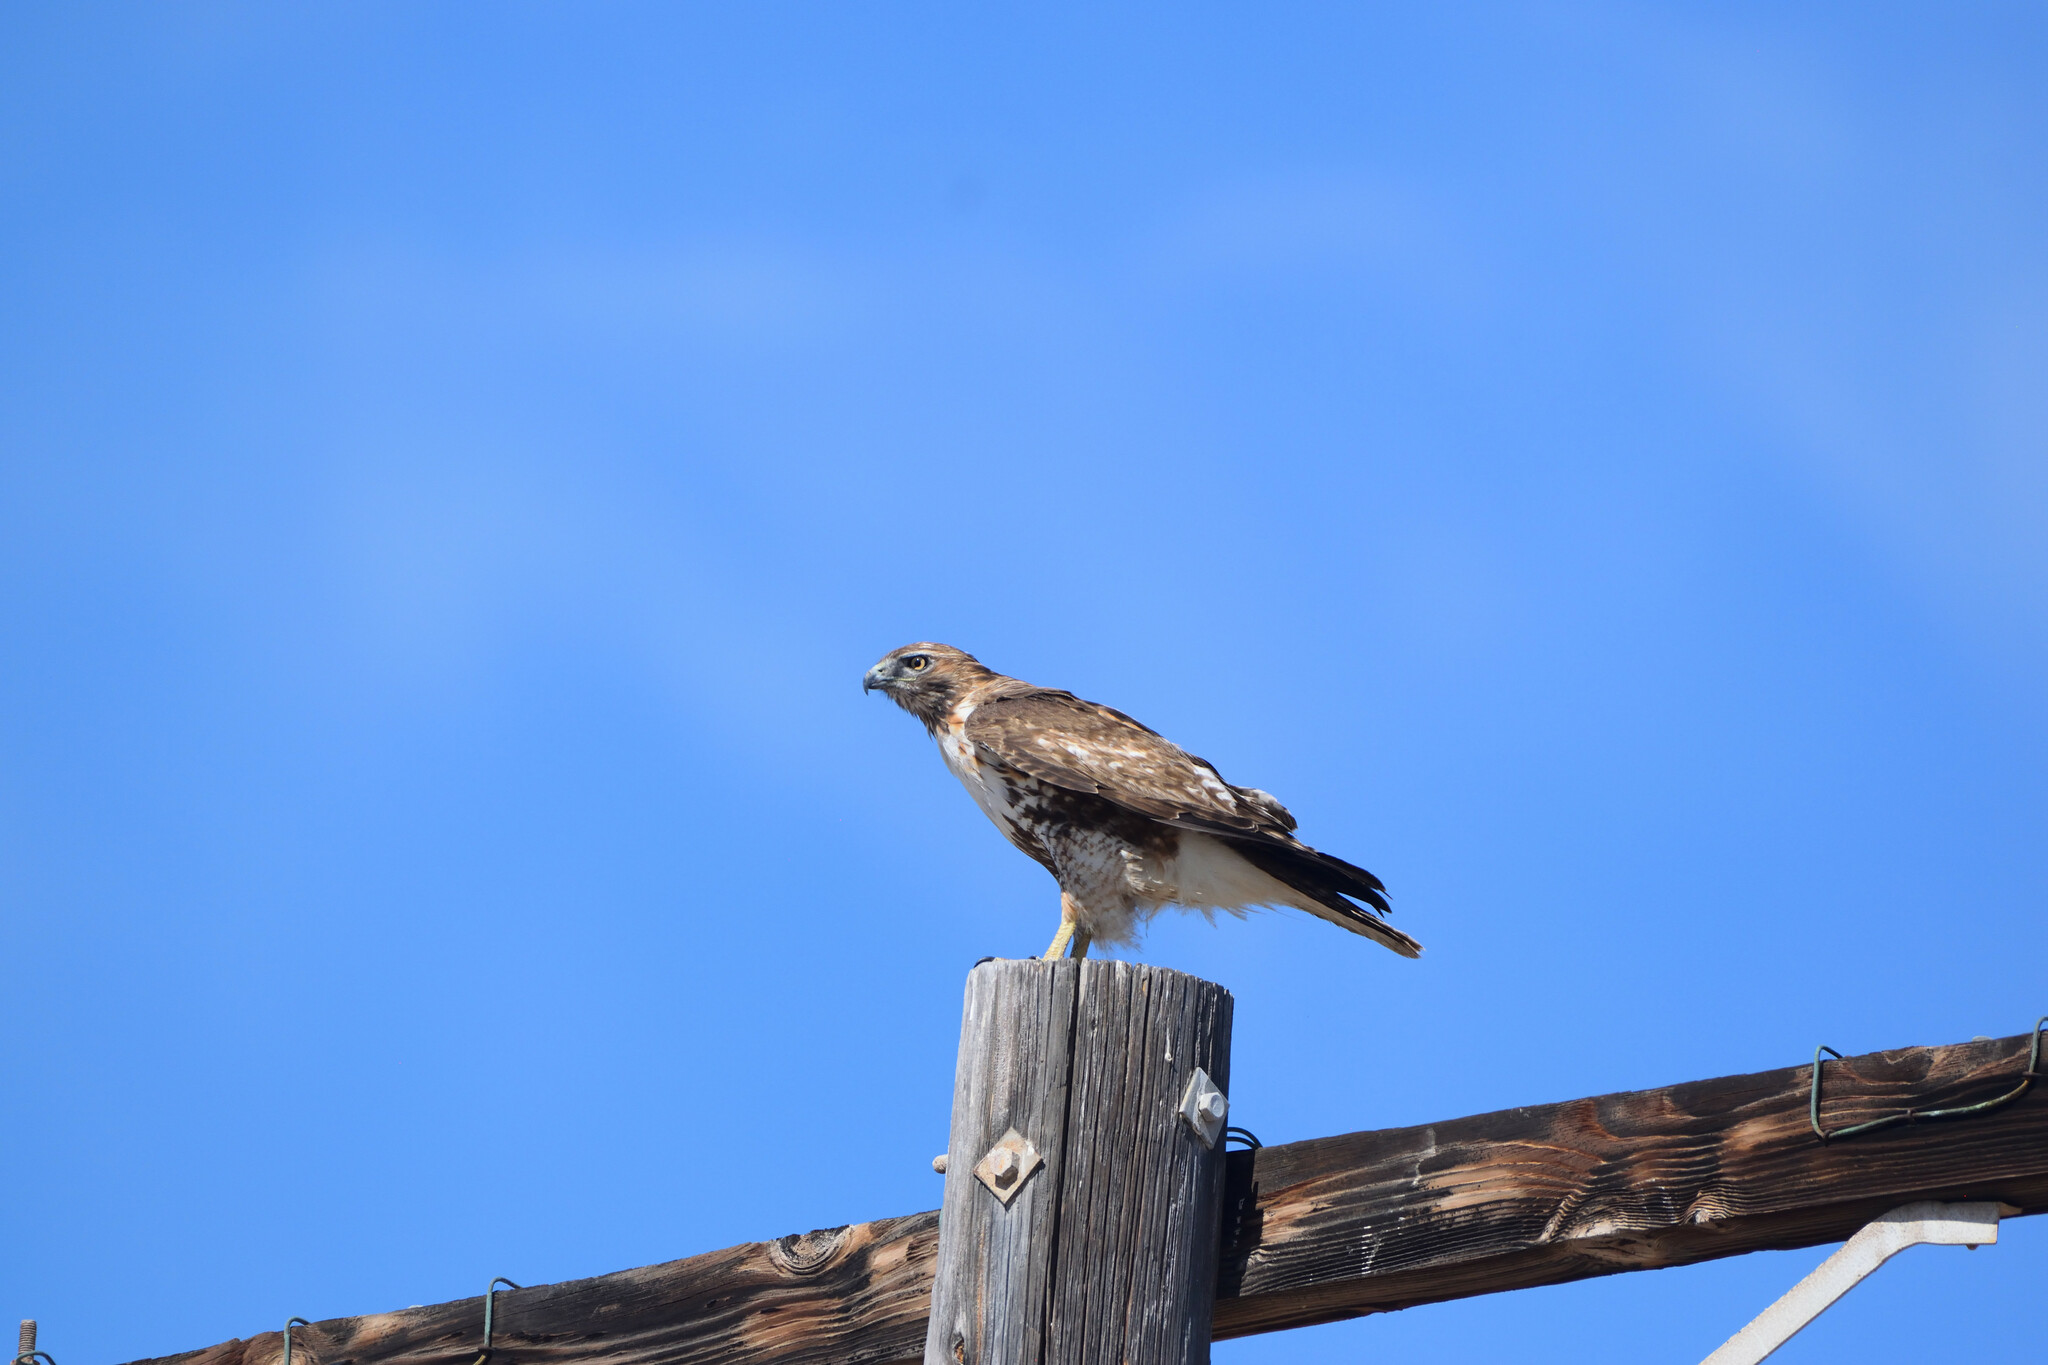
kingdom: Animalia
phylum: Chordata
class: Aves
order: Accipitriformes
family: Accipitridae
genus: Buteo
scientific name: Buteo jamaicensis
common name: Red-tailed hawk
